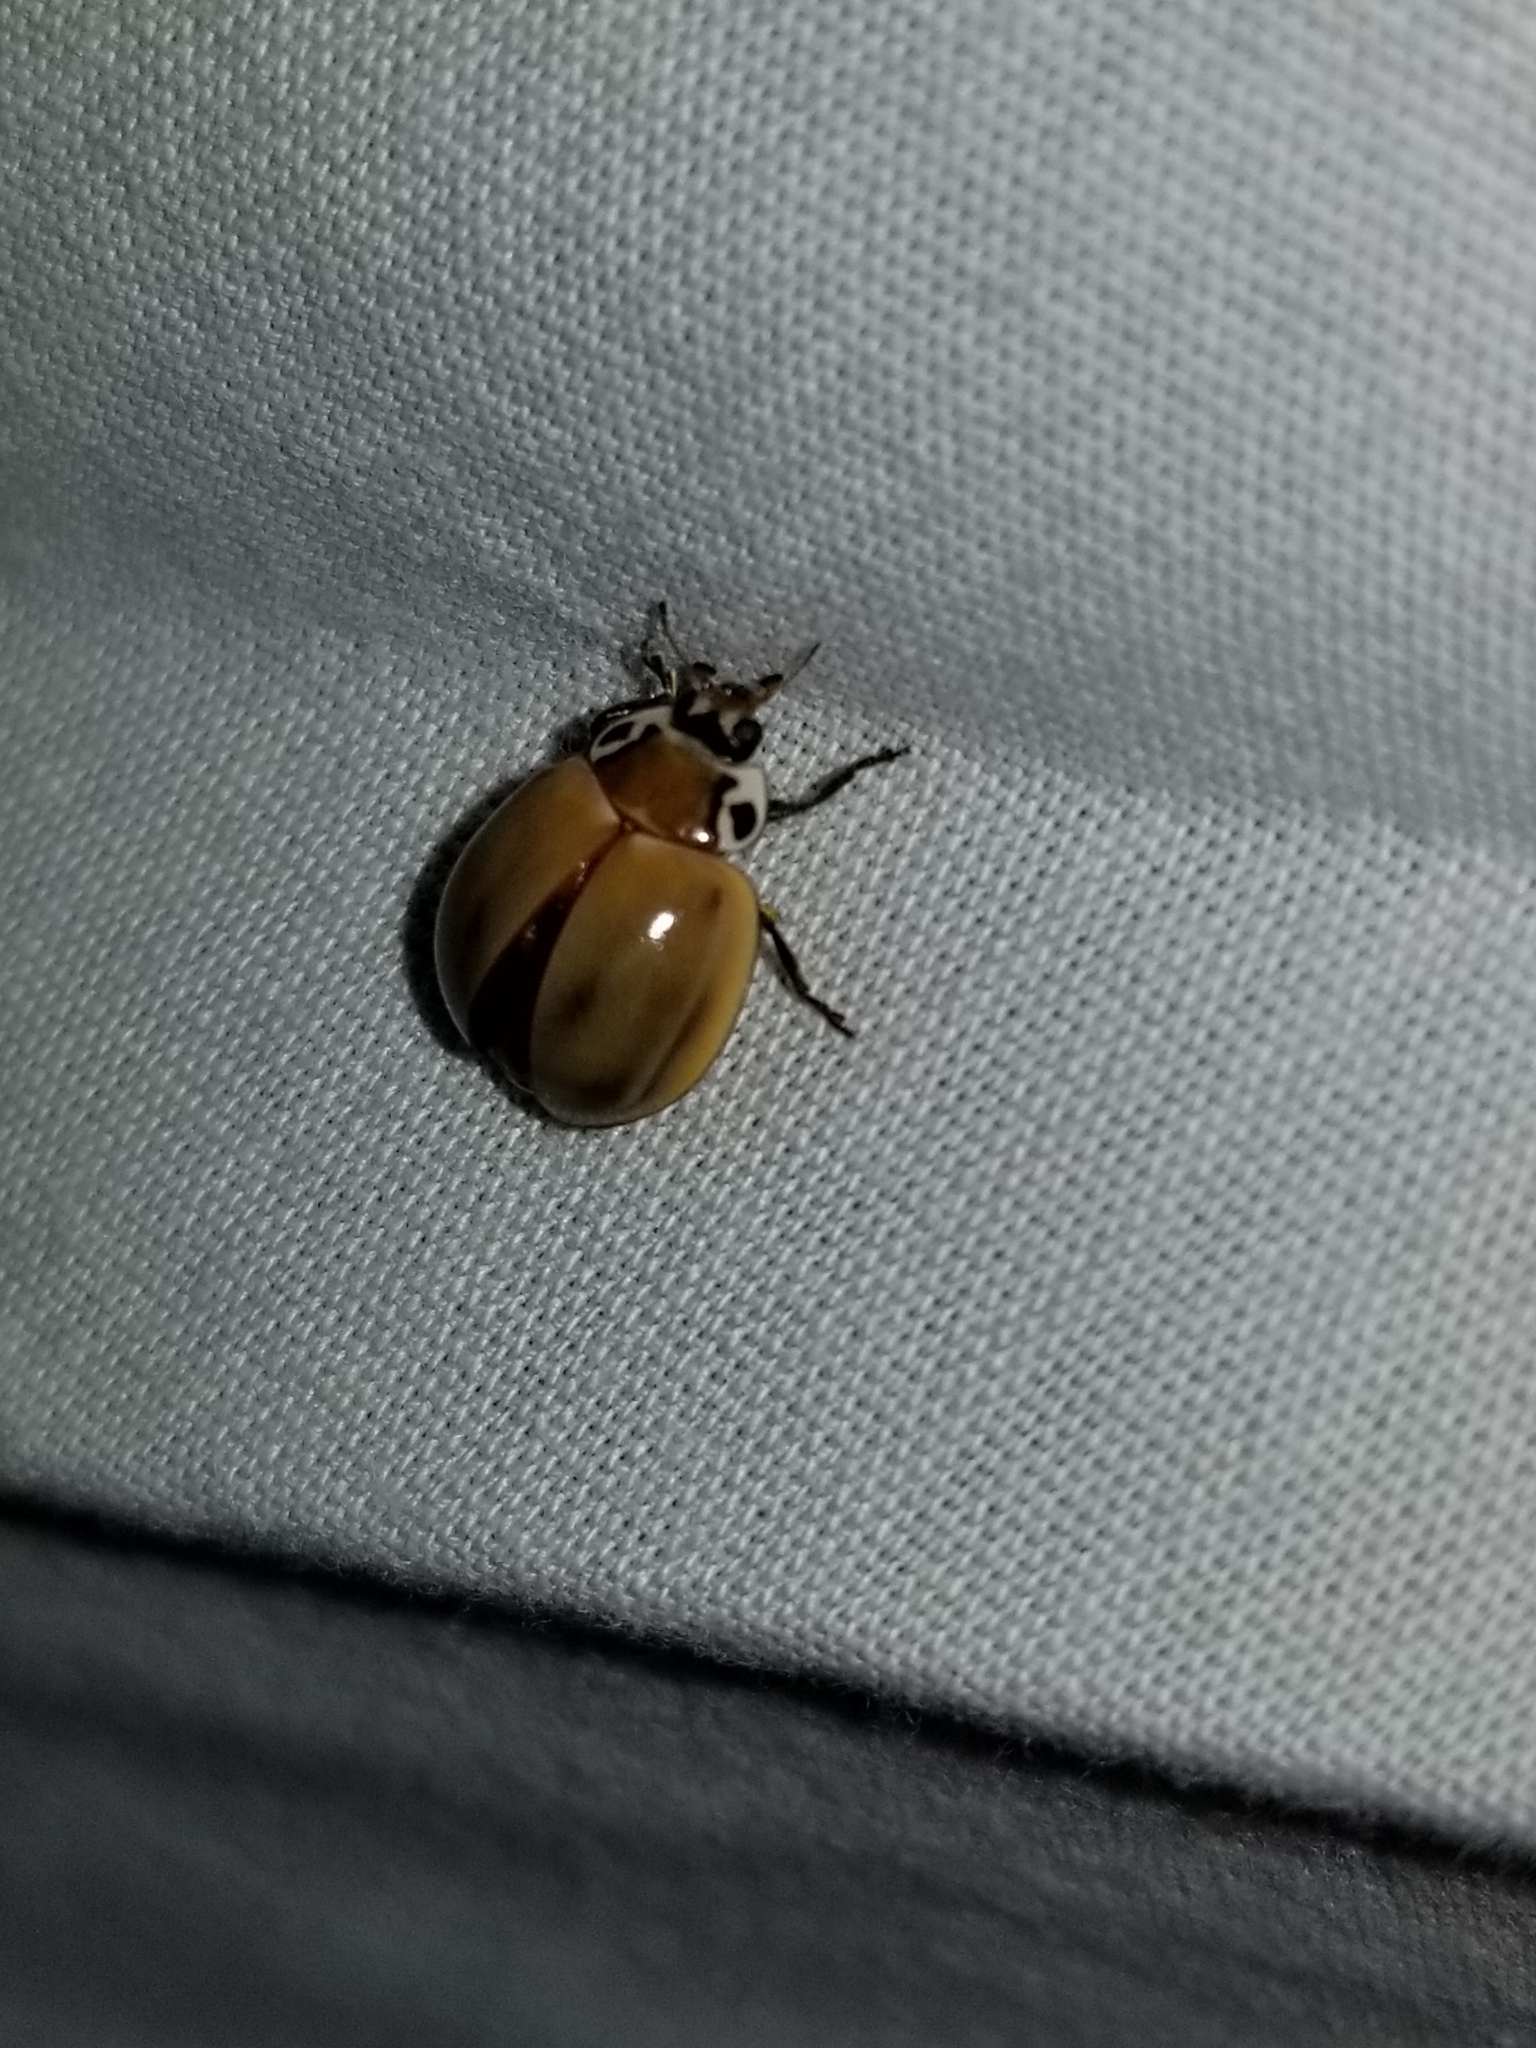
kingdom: Animalia
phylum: Arthropoda
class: Insecta
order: Coleoptera
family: Coccinellidae
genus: Myzia
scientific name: Myzia pullata
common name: Streaked lady beetle
